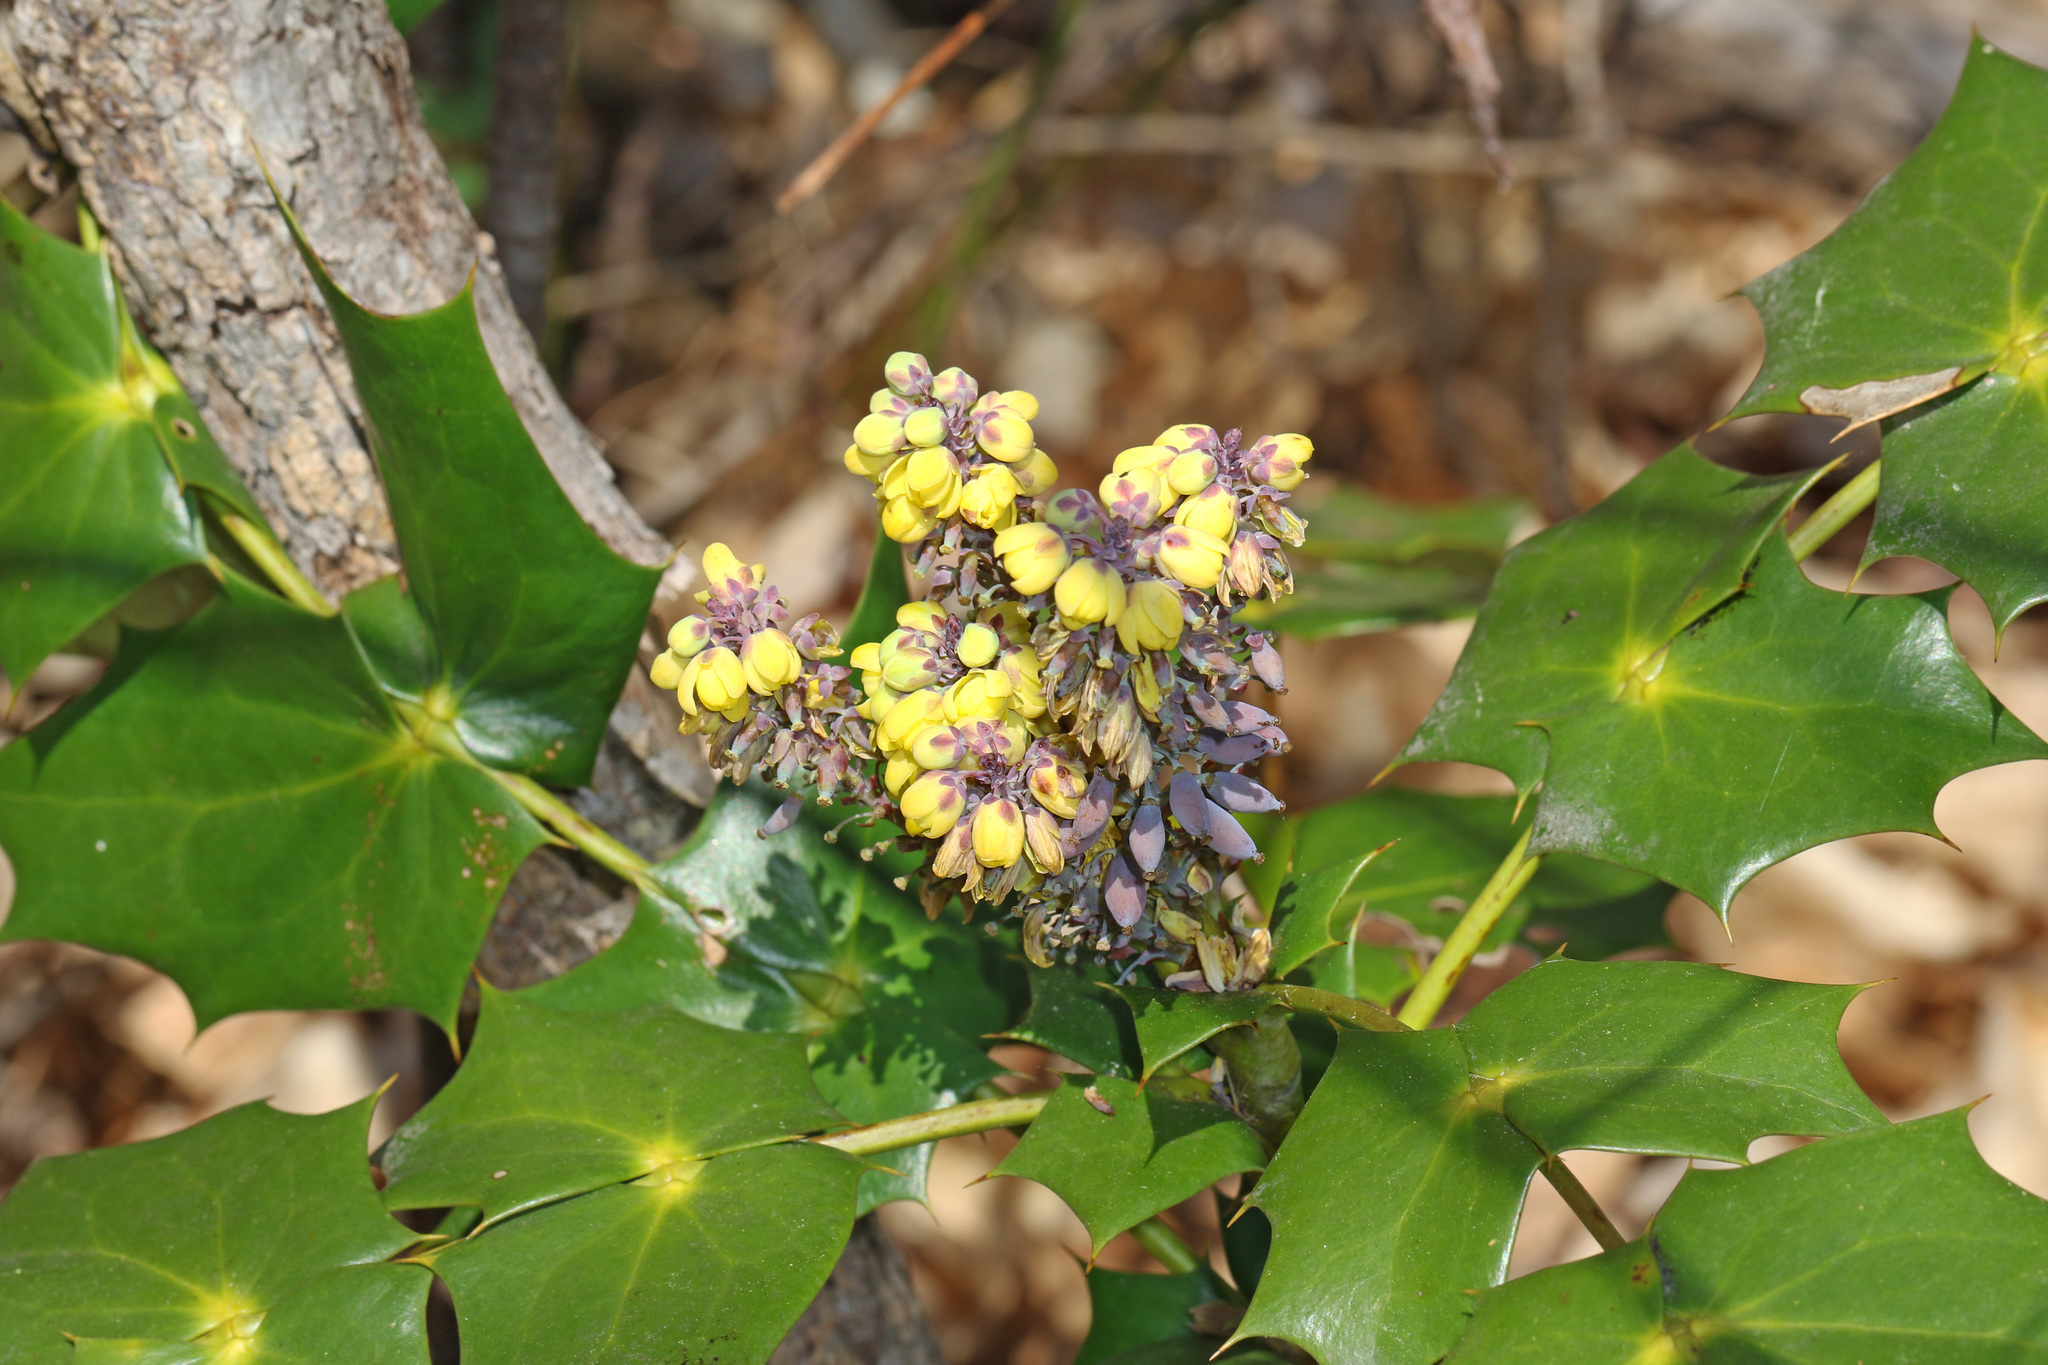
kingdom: Plantae
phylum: Tracheophyta
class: Magnoliopsida
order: Ranunculales
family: Berberidaceae
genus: Mahonia
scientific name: Mahonia bealei
